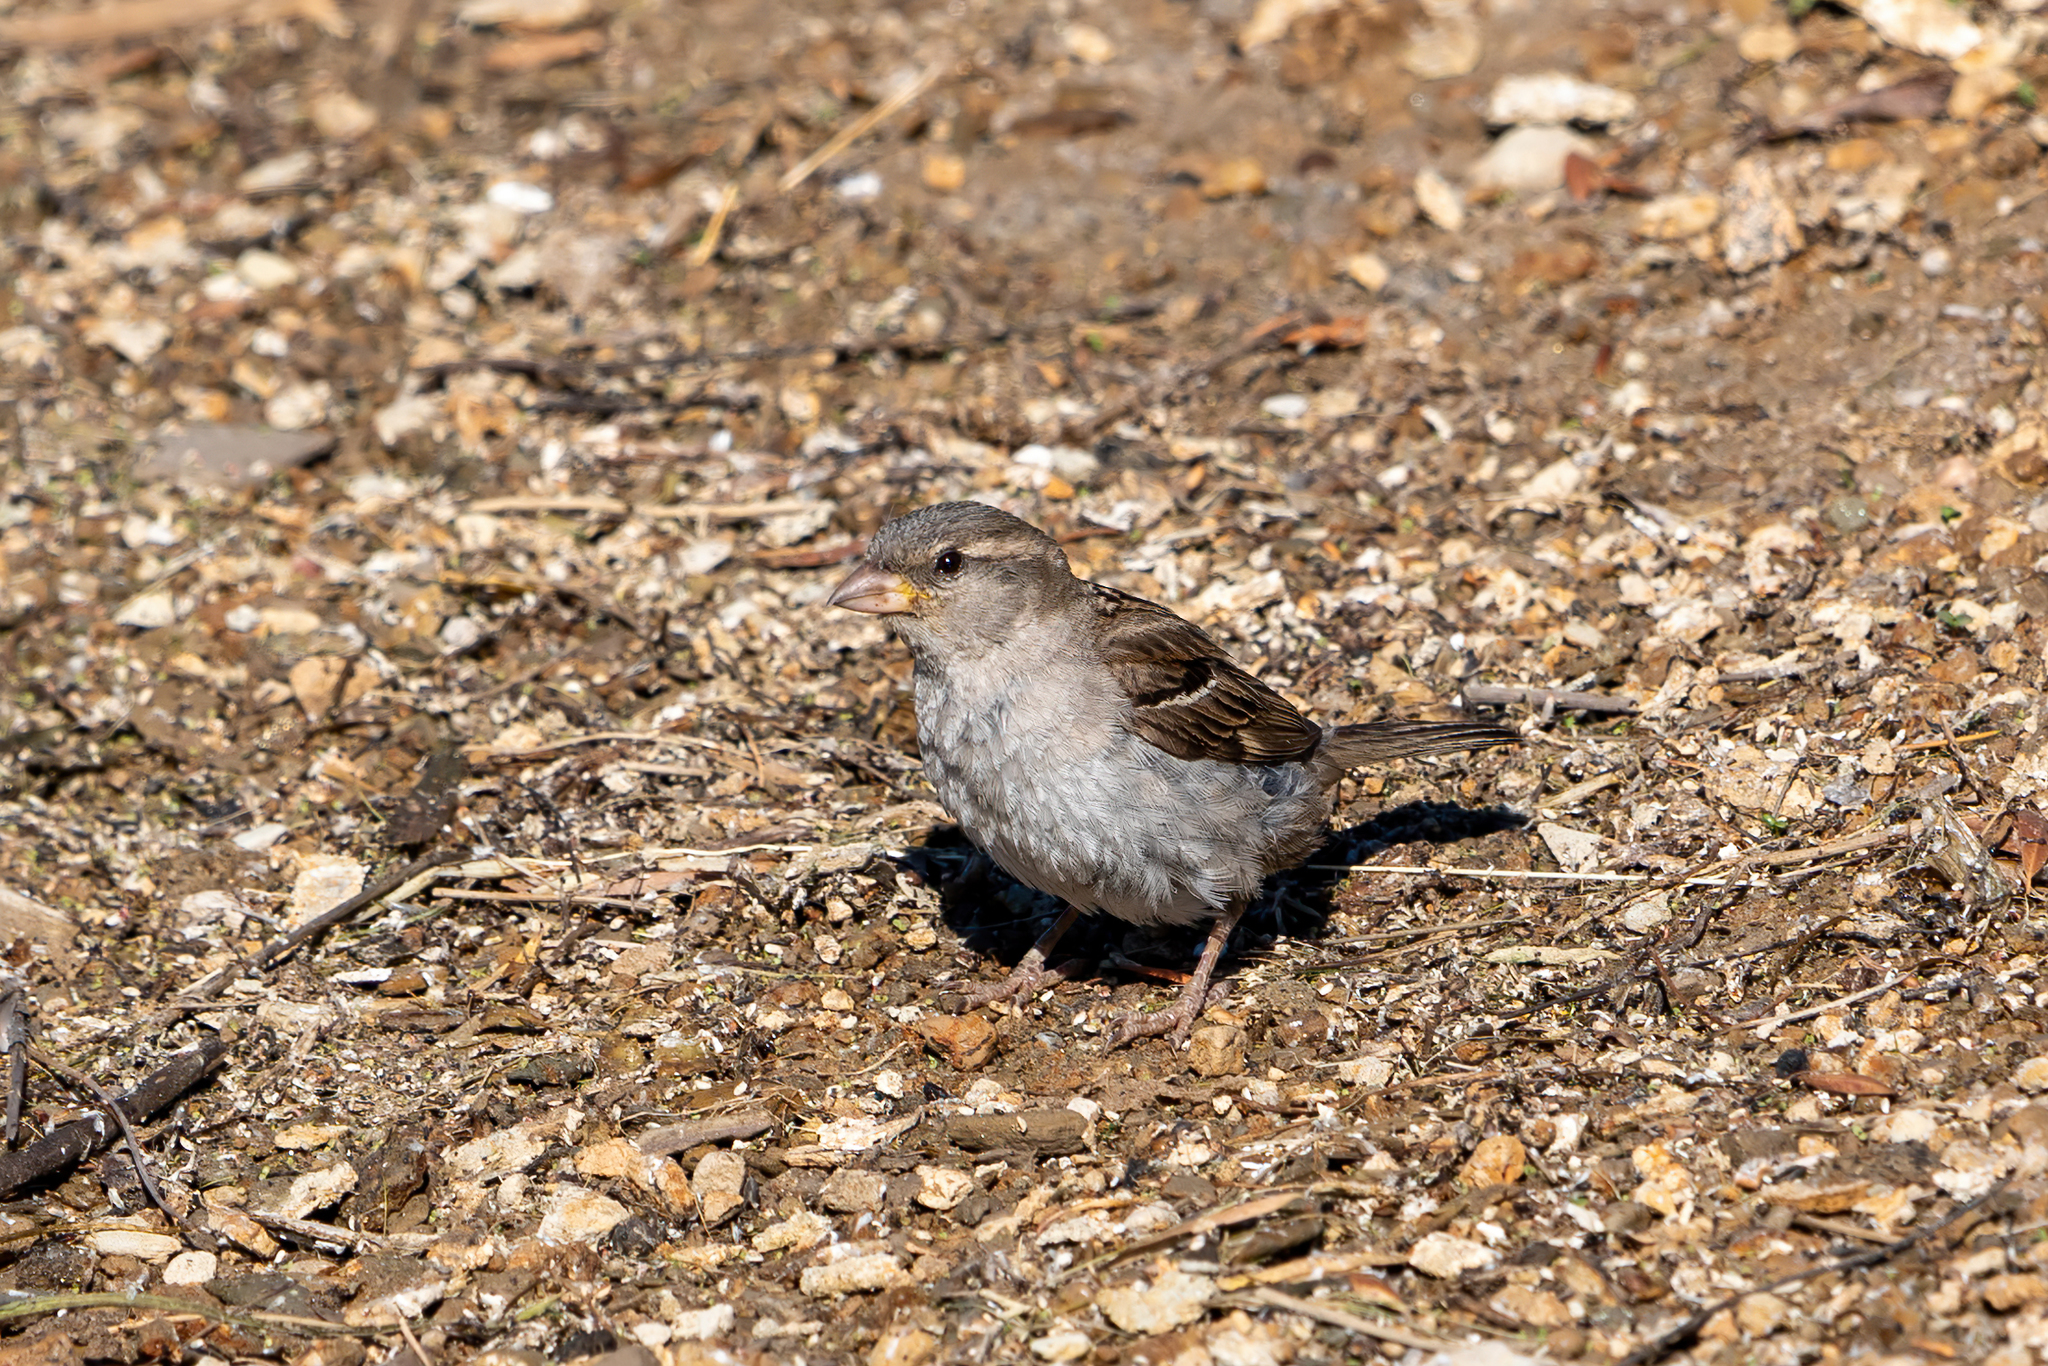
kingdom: Animalia
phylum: Chordata
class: Aves
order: Passeriformes
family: Passeridae
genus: Passer
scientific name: Passer domesticus
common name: House sparrow
